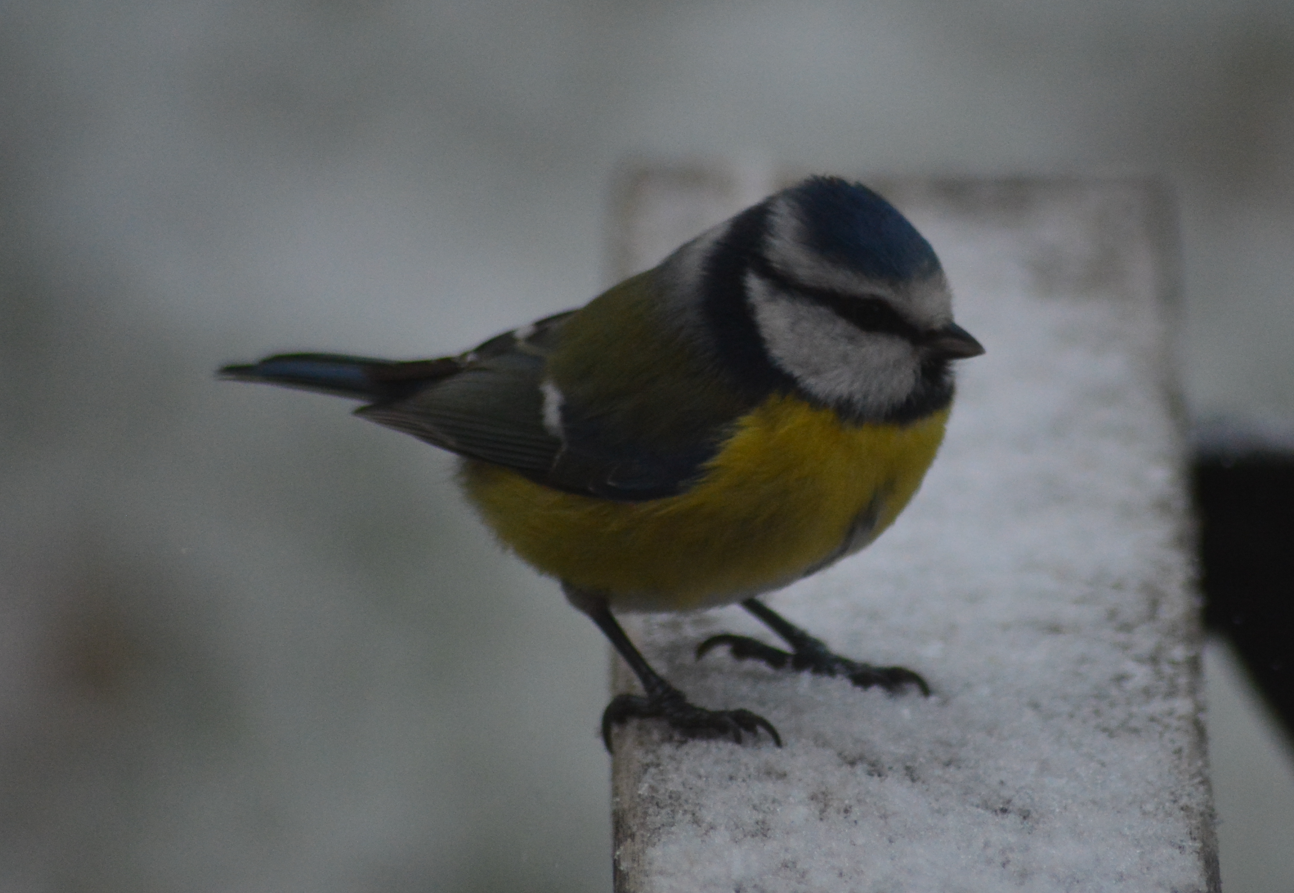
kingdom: Animalia
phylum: Chordata
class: Aves
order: Passeriformes
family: Paridae
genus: Cyanistes
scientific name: Cyanistes caeruleus
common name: Eurasian blue tit
